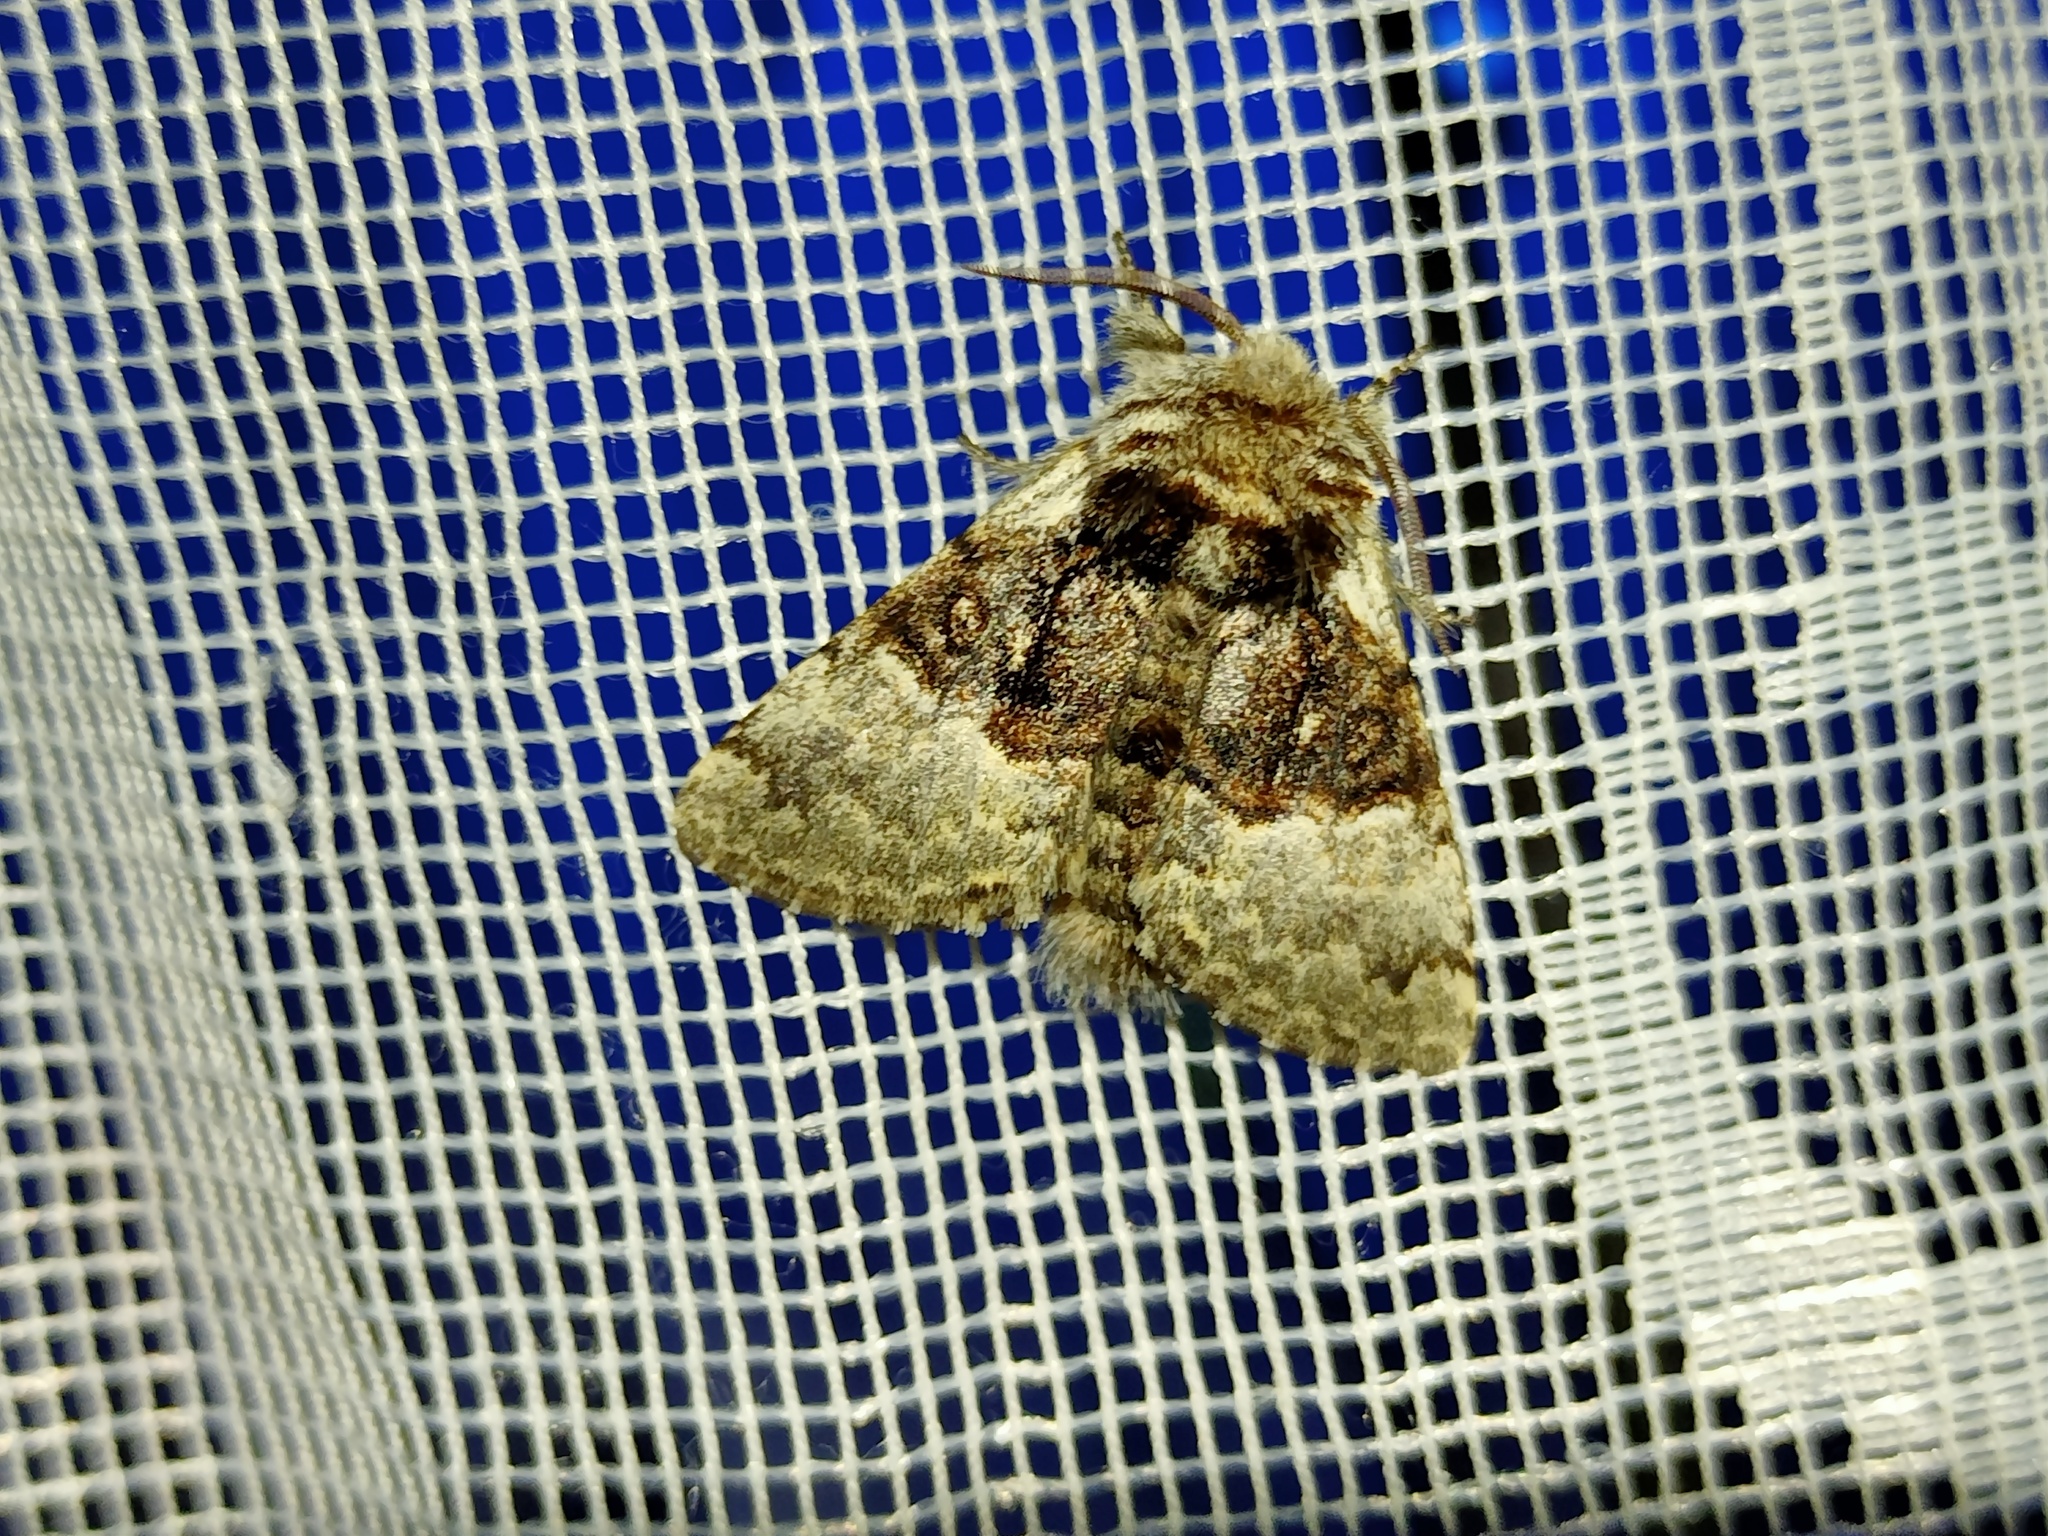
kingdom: Animalia
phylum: Arthropoda
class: Insecta
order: Lepidoptera
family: Noctuidae
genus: Colocasia
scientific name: Colocasia coryli
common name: Nut-tree tussock
